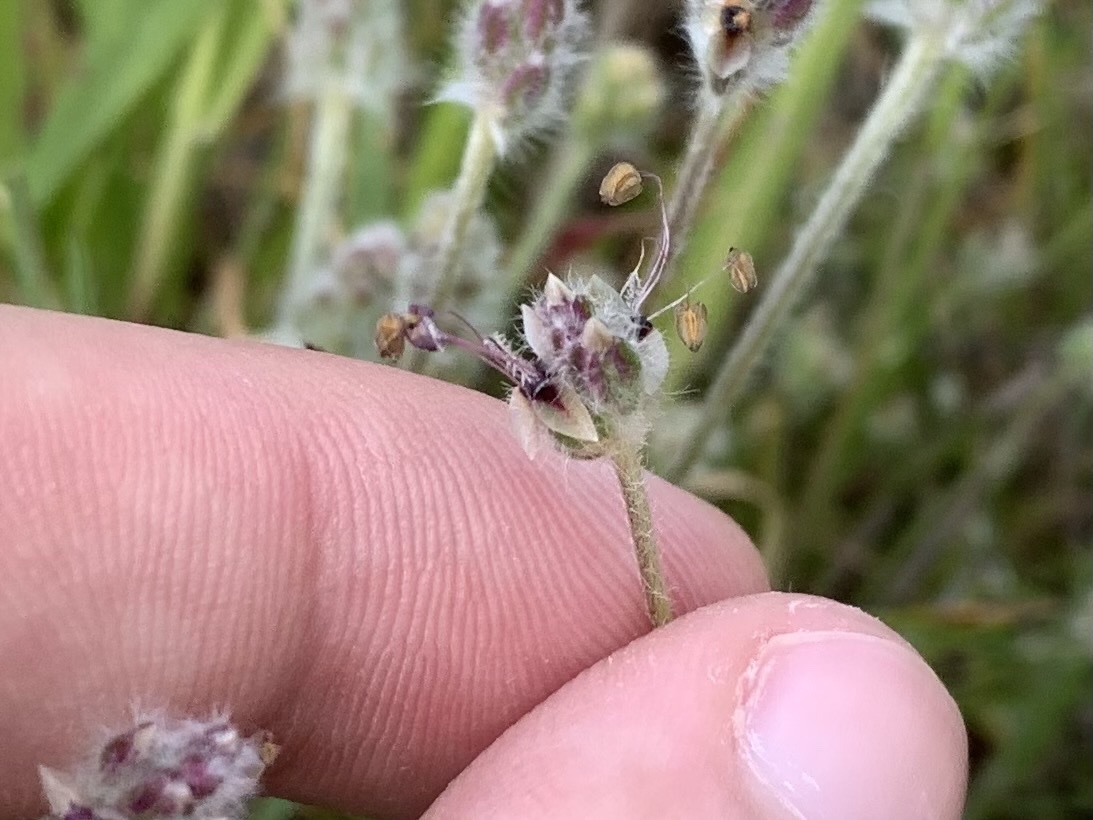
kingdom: Plantae
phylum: Tracheophyta
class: Magnoliopsida
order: Lamiales
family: Plantaginaceae
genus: Plantago
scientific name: Plantago erecta
